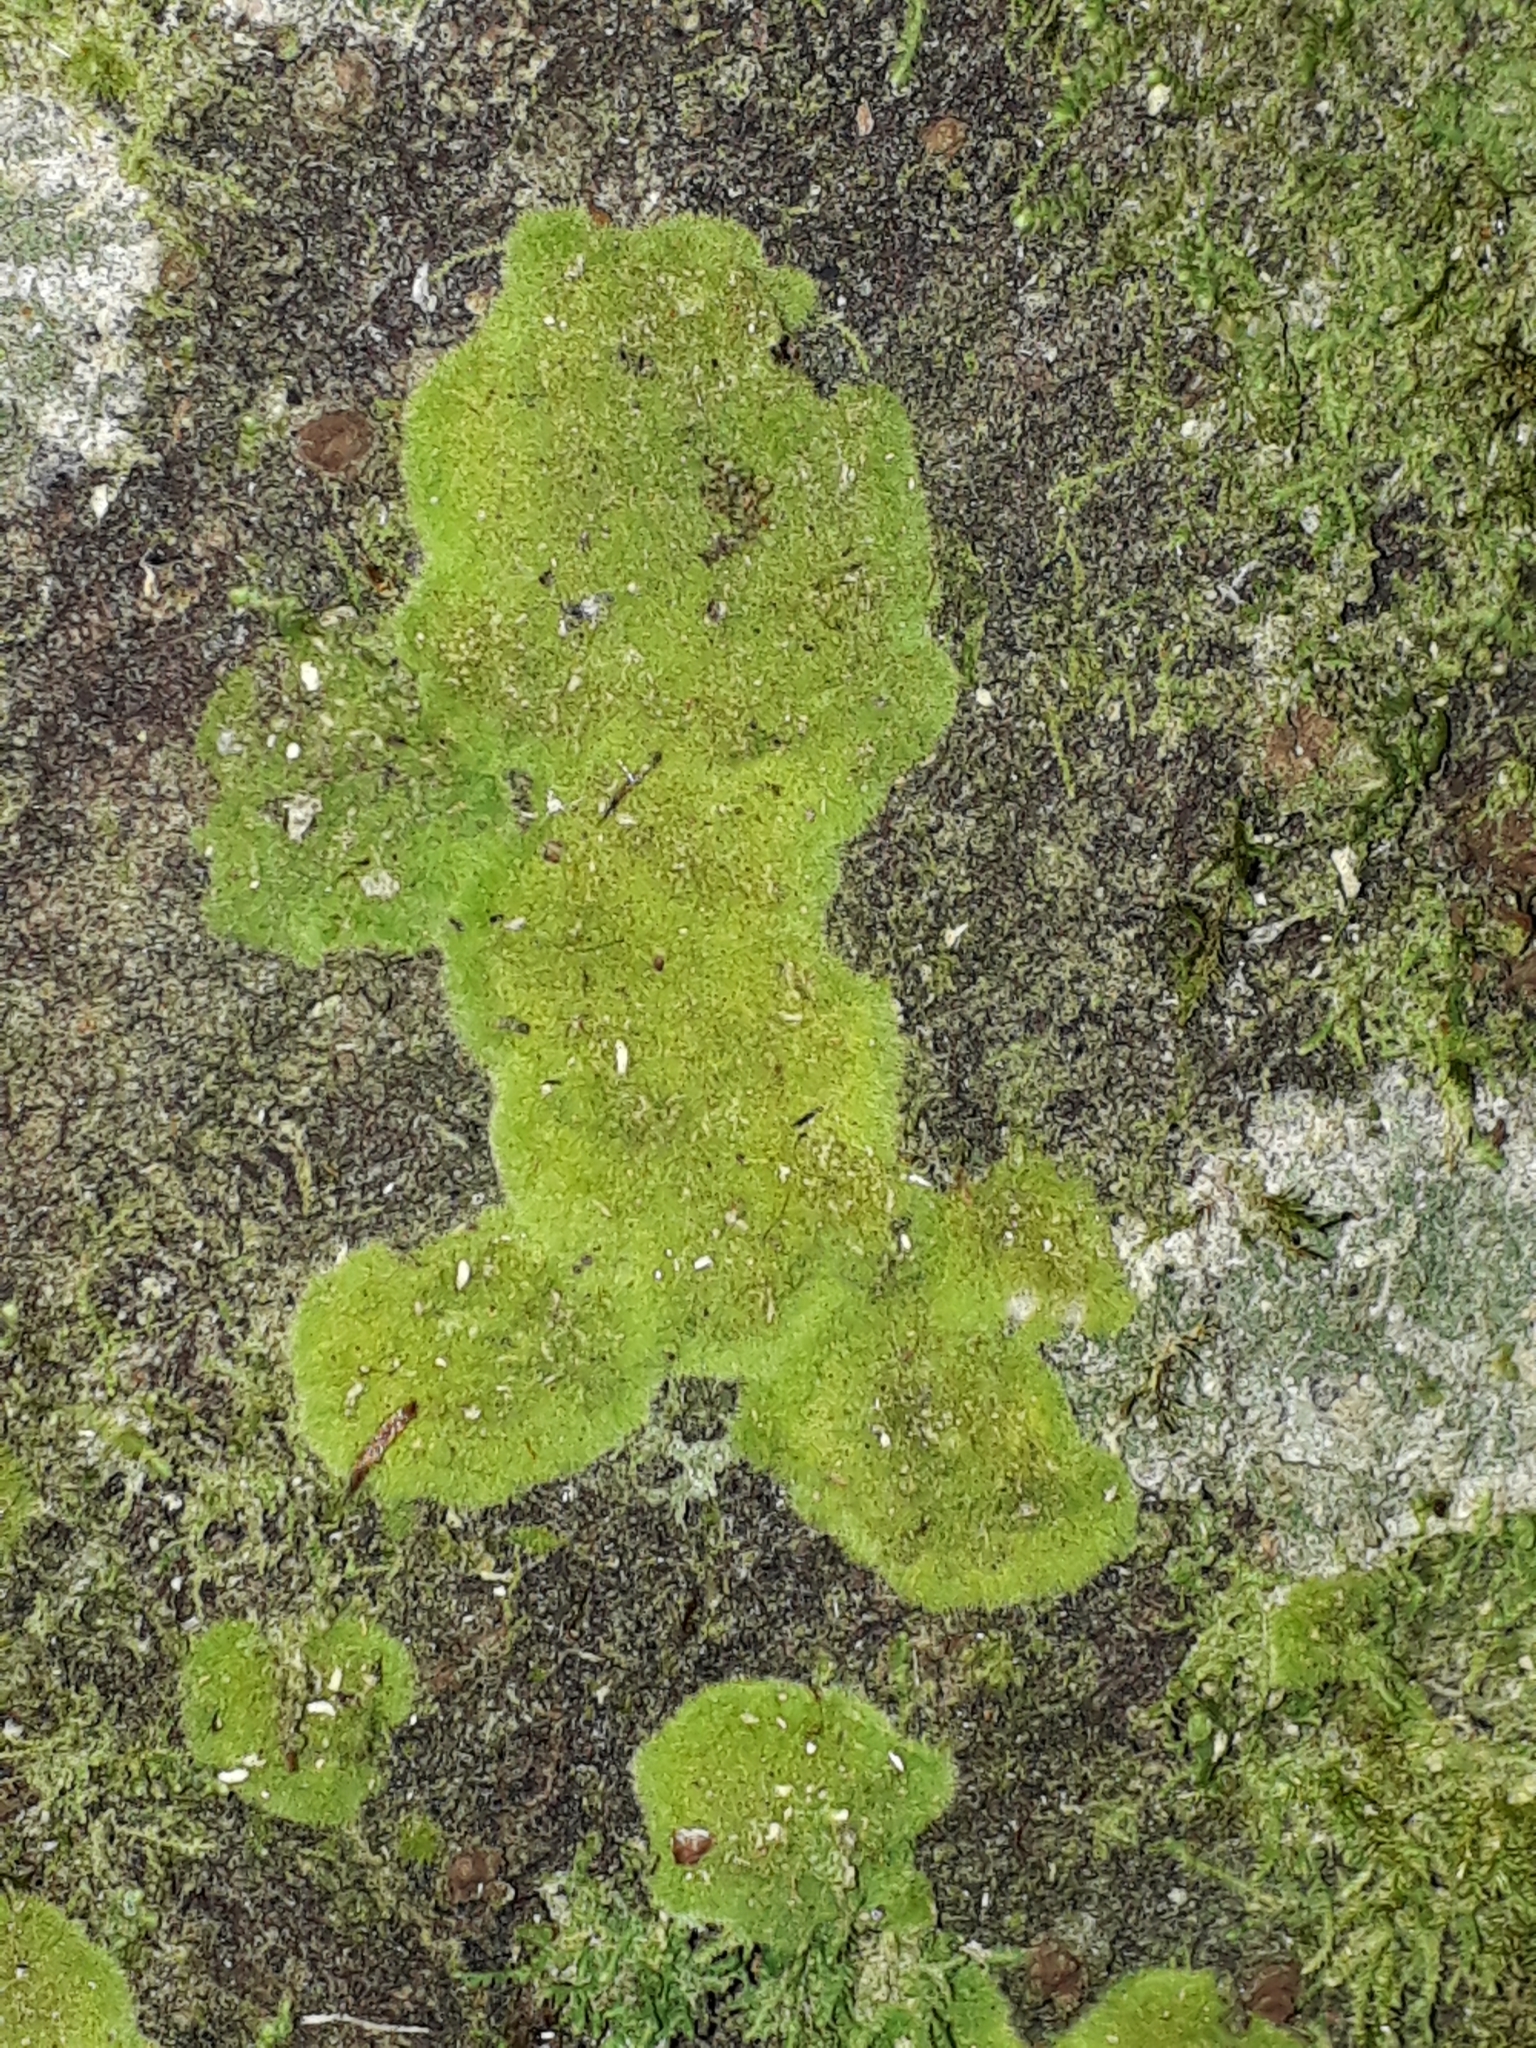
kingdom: Fungi
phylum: Ascomycota
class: Lecanoromycetes
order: Ostropales
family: Coenogoniaceae
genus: Coenogonium
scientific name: Coenogonium implexum
